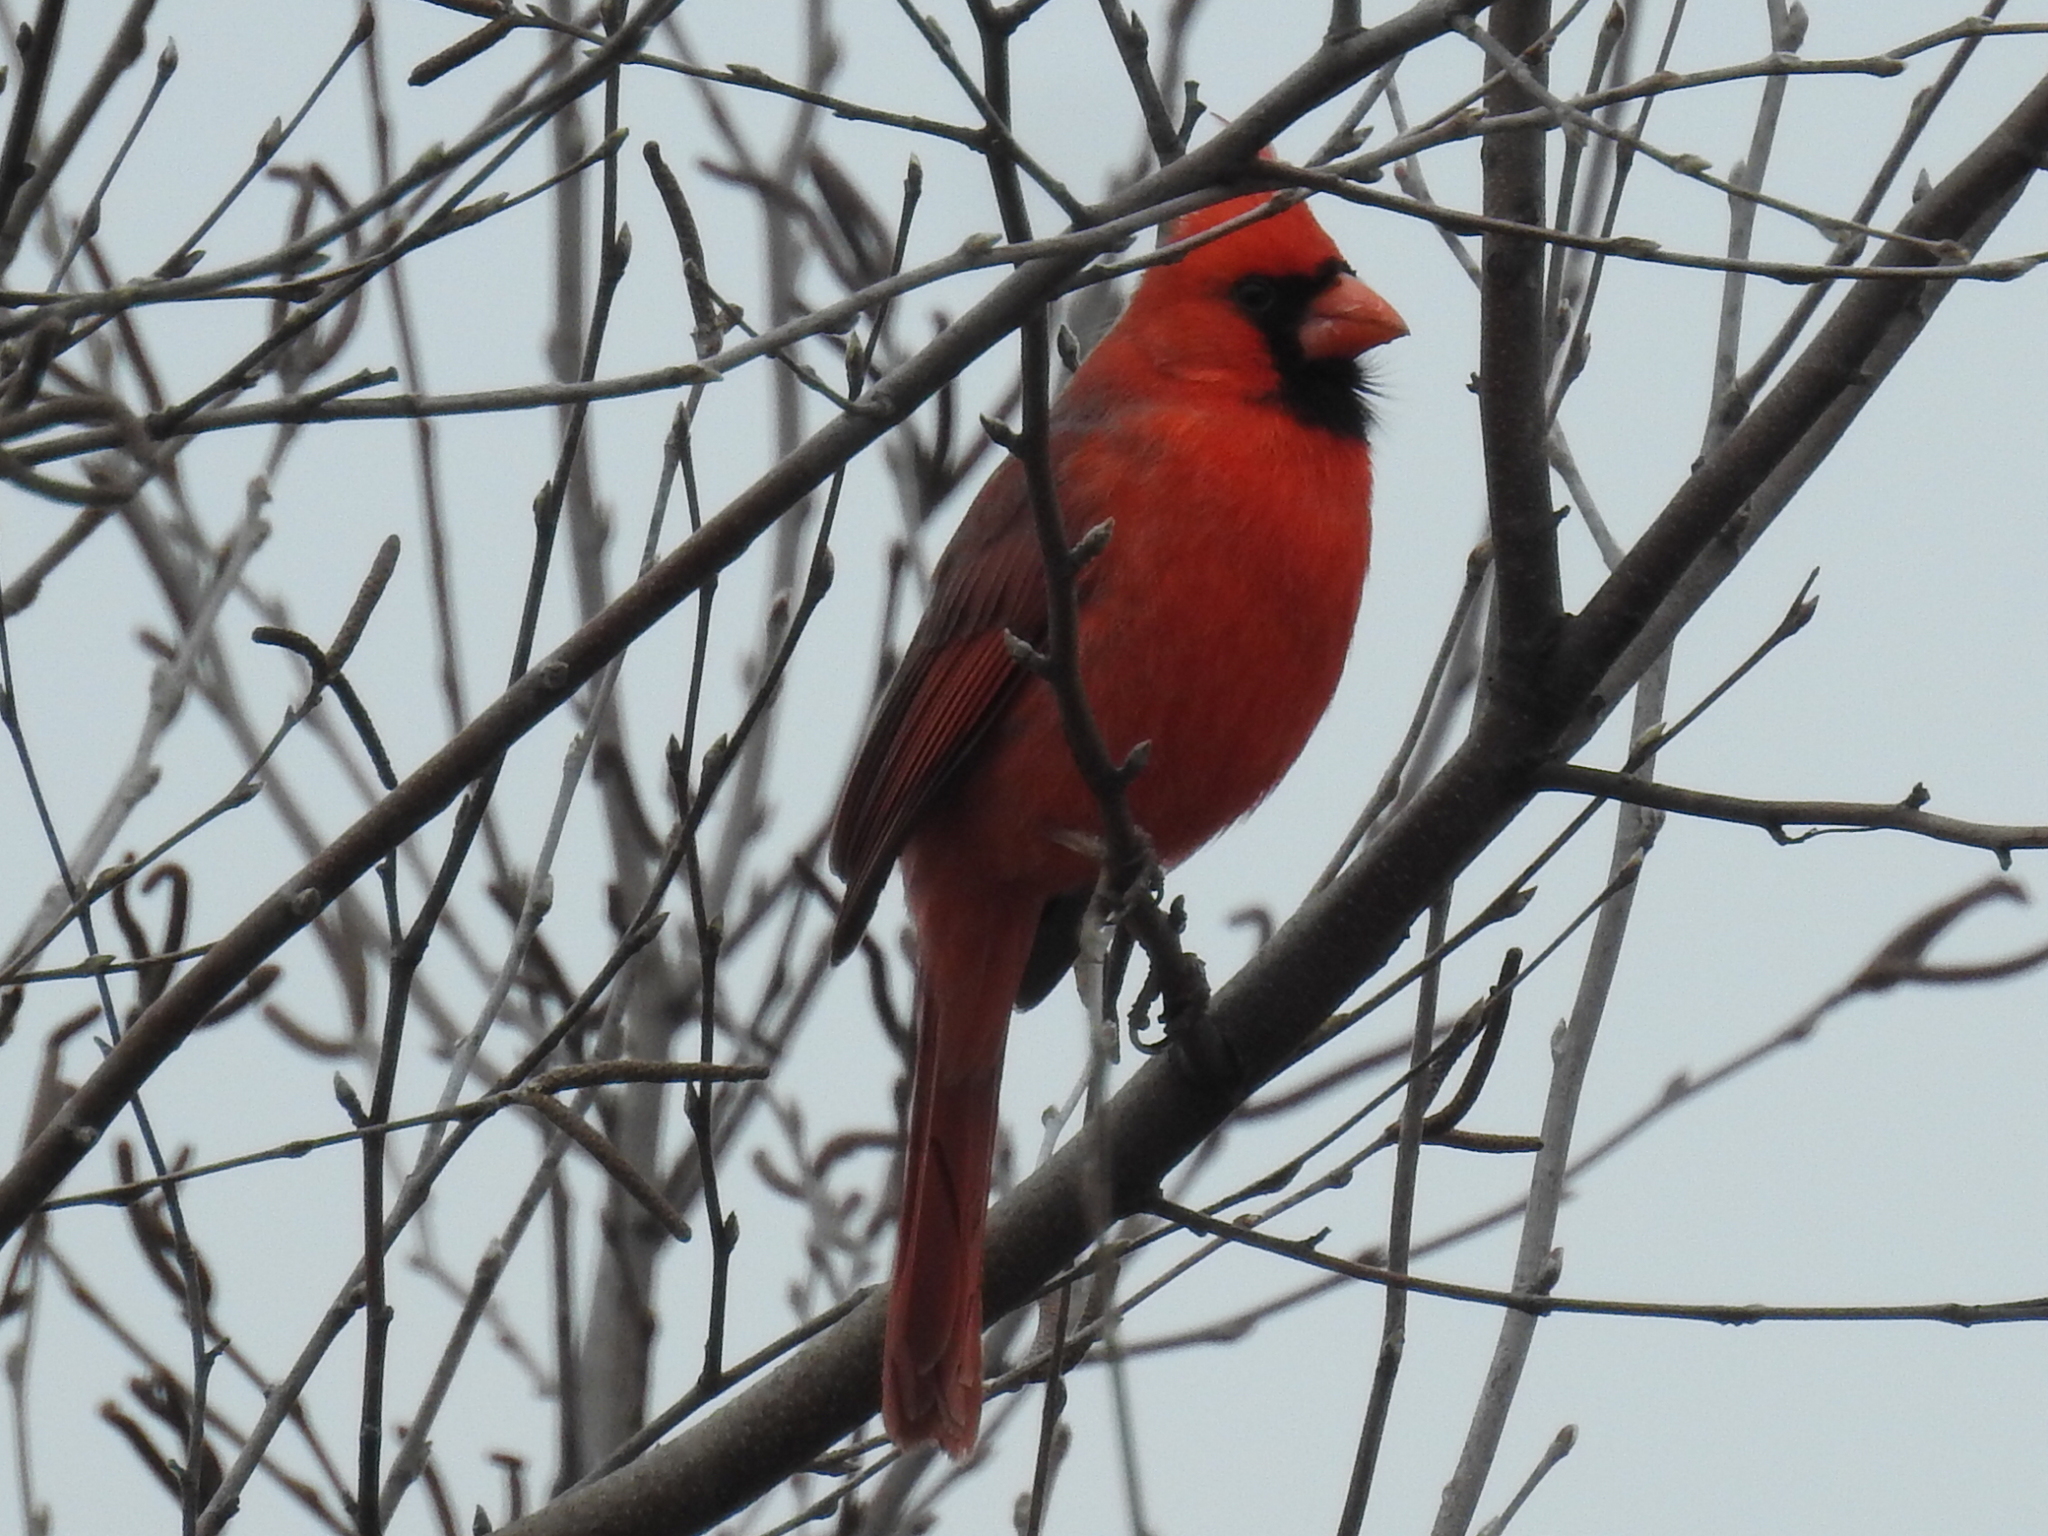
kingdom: Animalia
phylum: Chordata
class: Aves
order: Passeriformes
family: Cardinalidae
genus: Cardinalis
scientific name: Cardinalis cardinalis
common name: Northern cardinal
